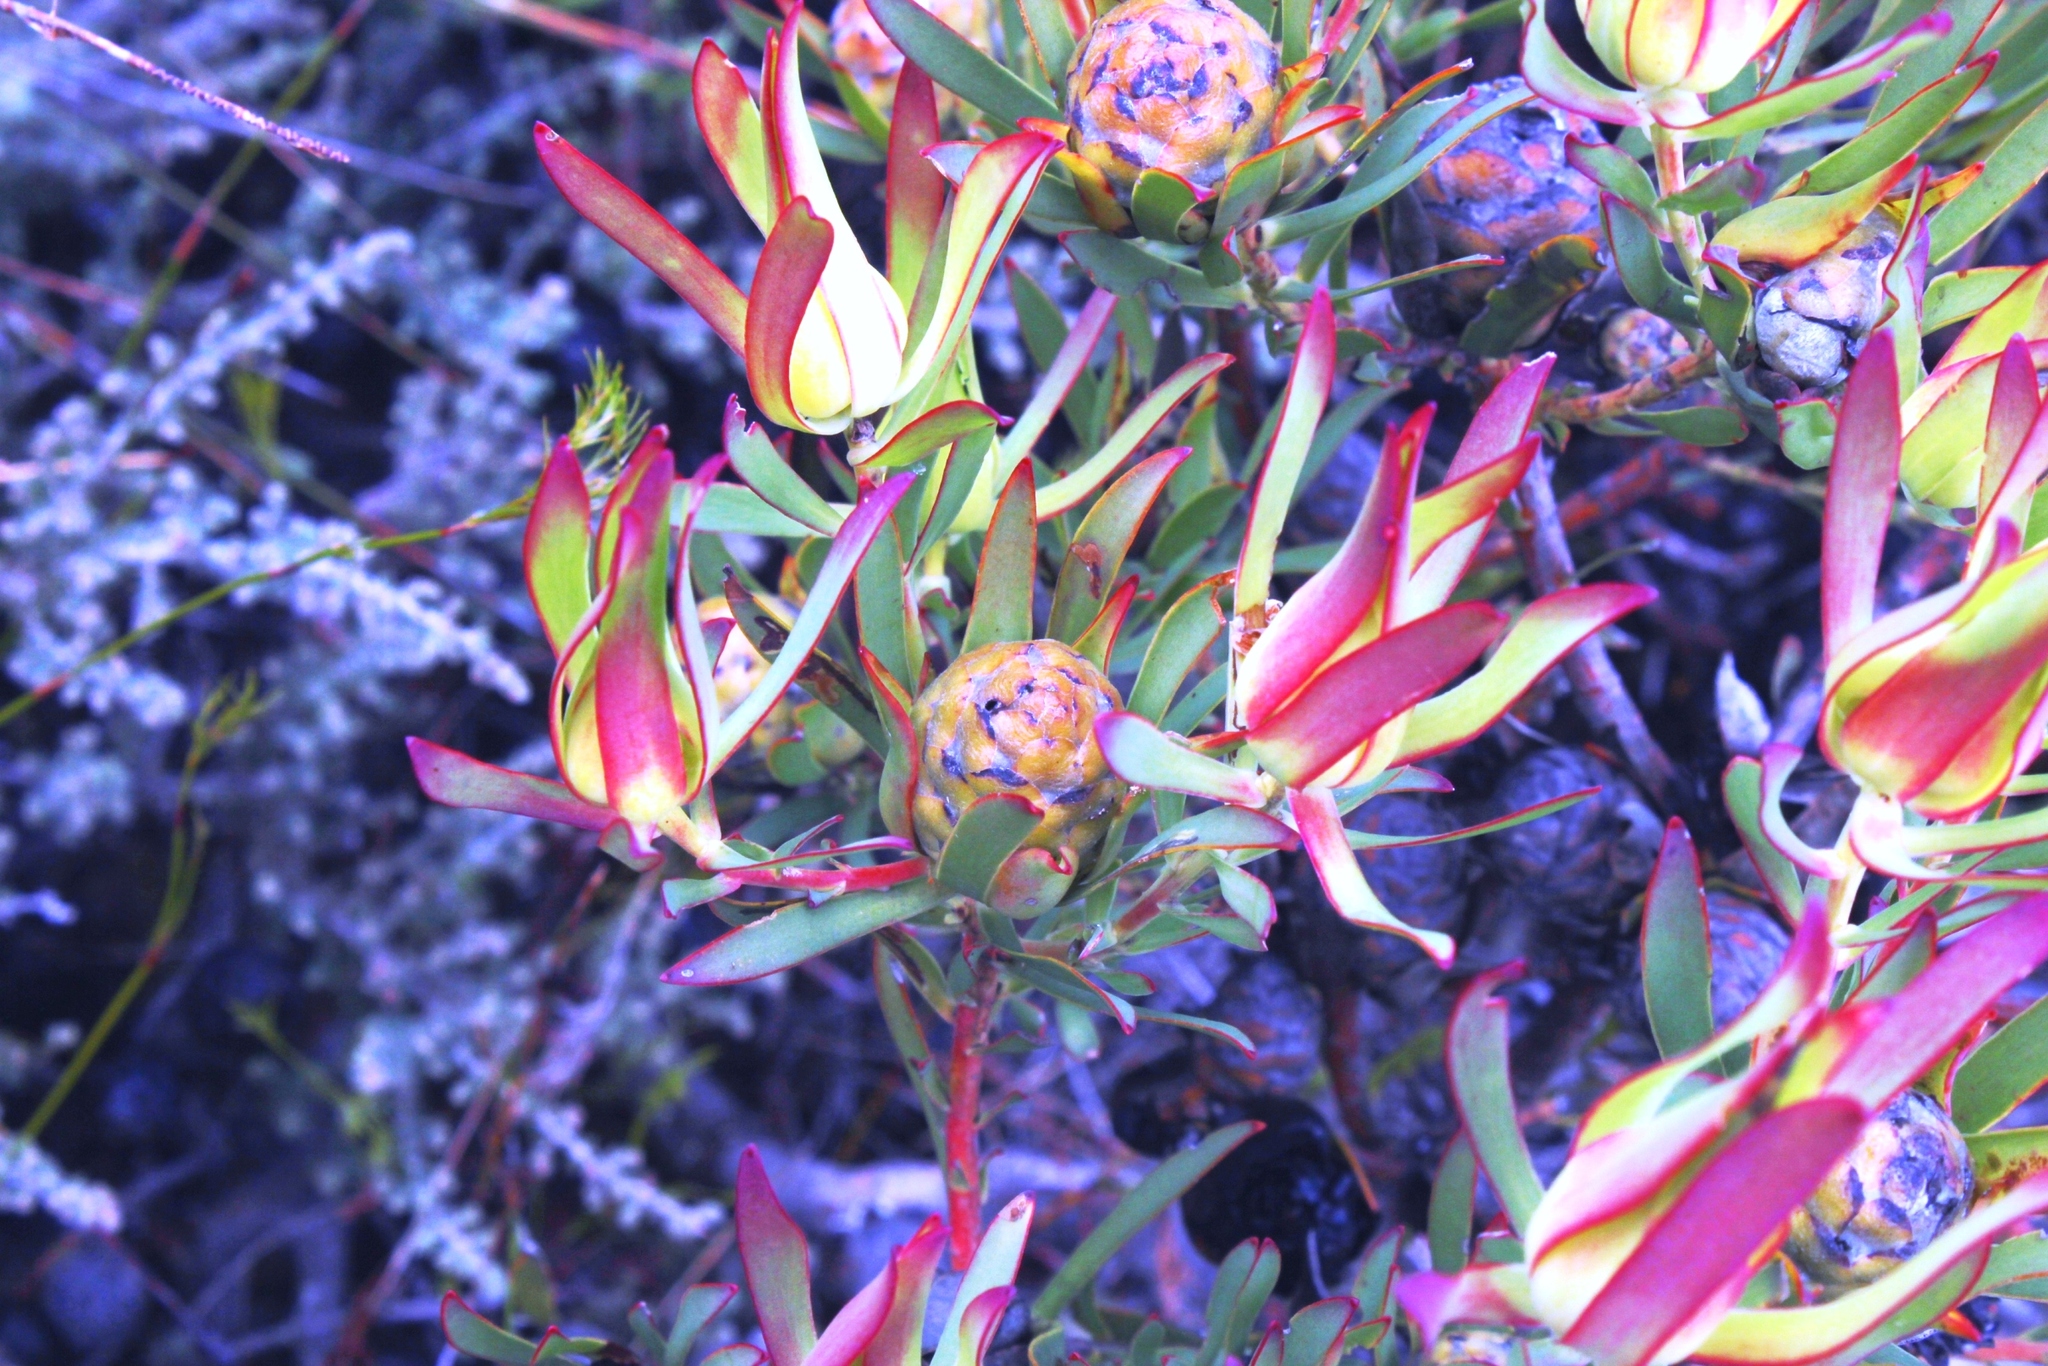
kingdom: Plantae
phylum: Tracheophyta
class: Magnoliopsida
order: Proteales
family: Proteaceae
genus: Leucadendron
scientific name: Leucadendron salignum
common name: Common sunshine conebush
